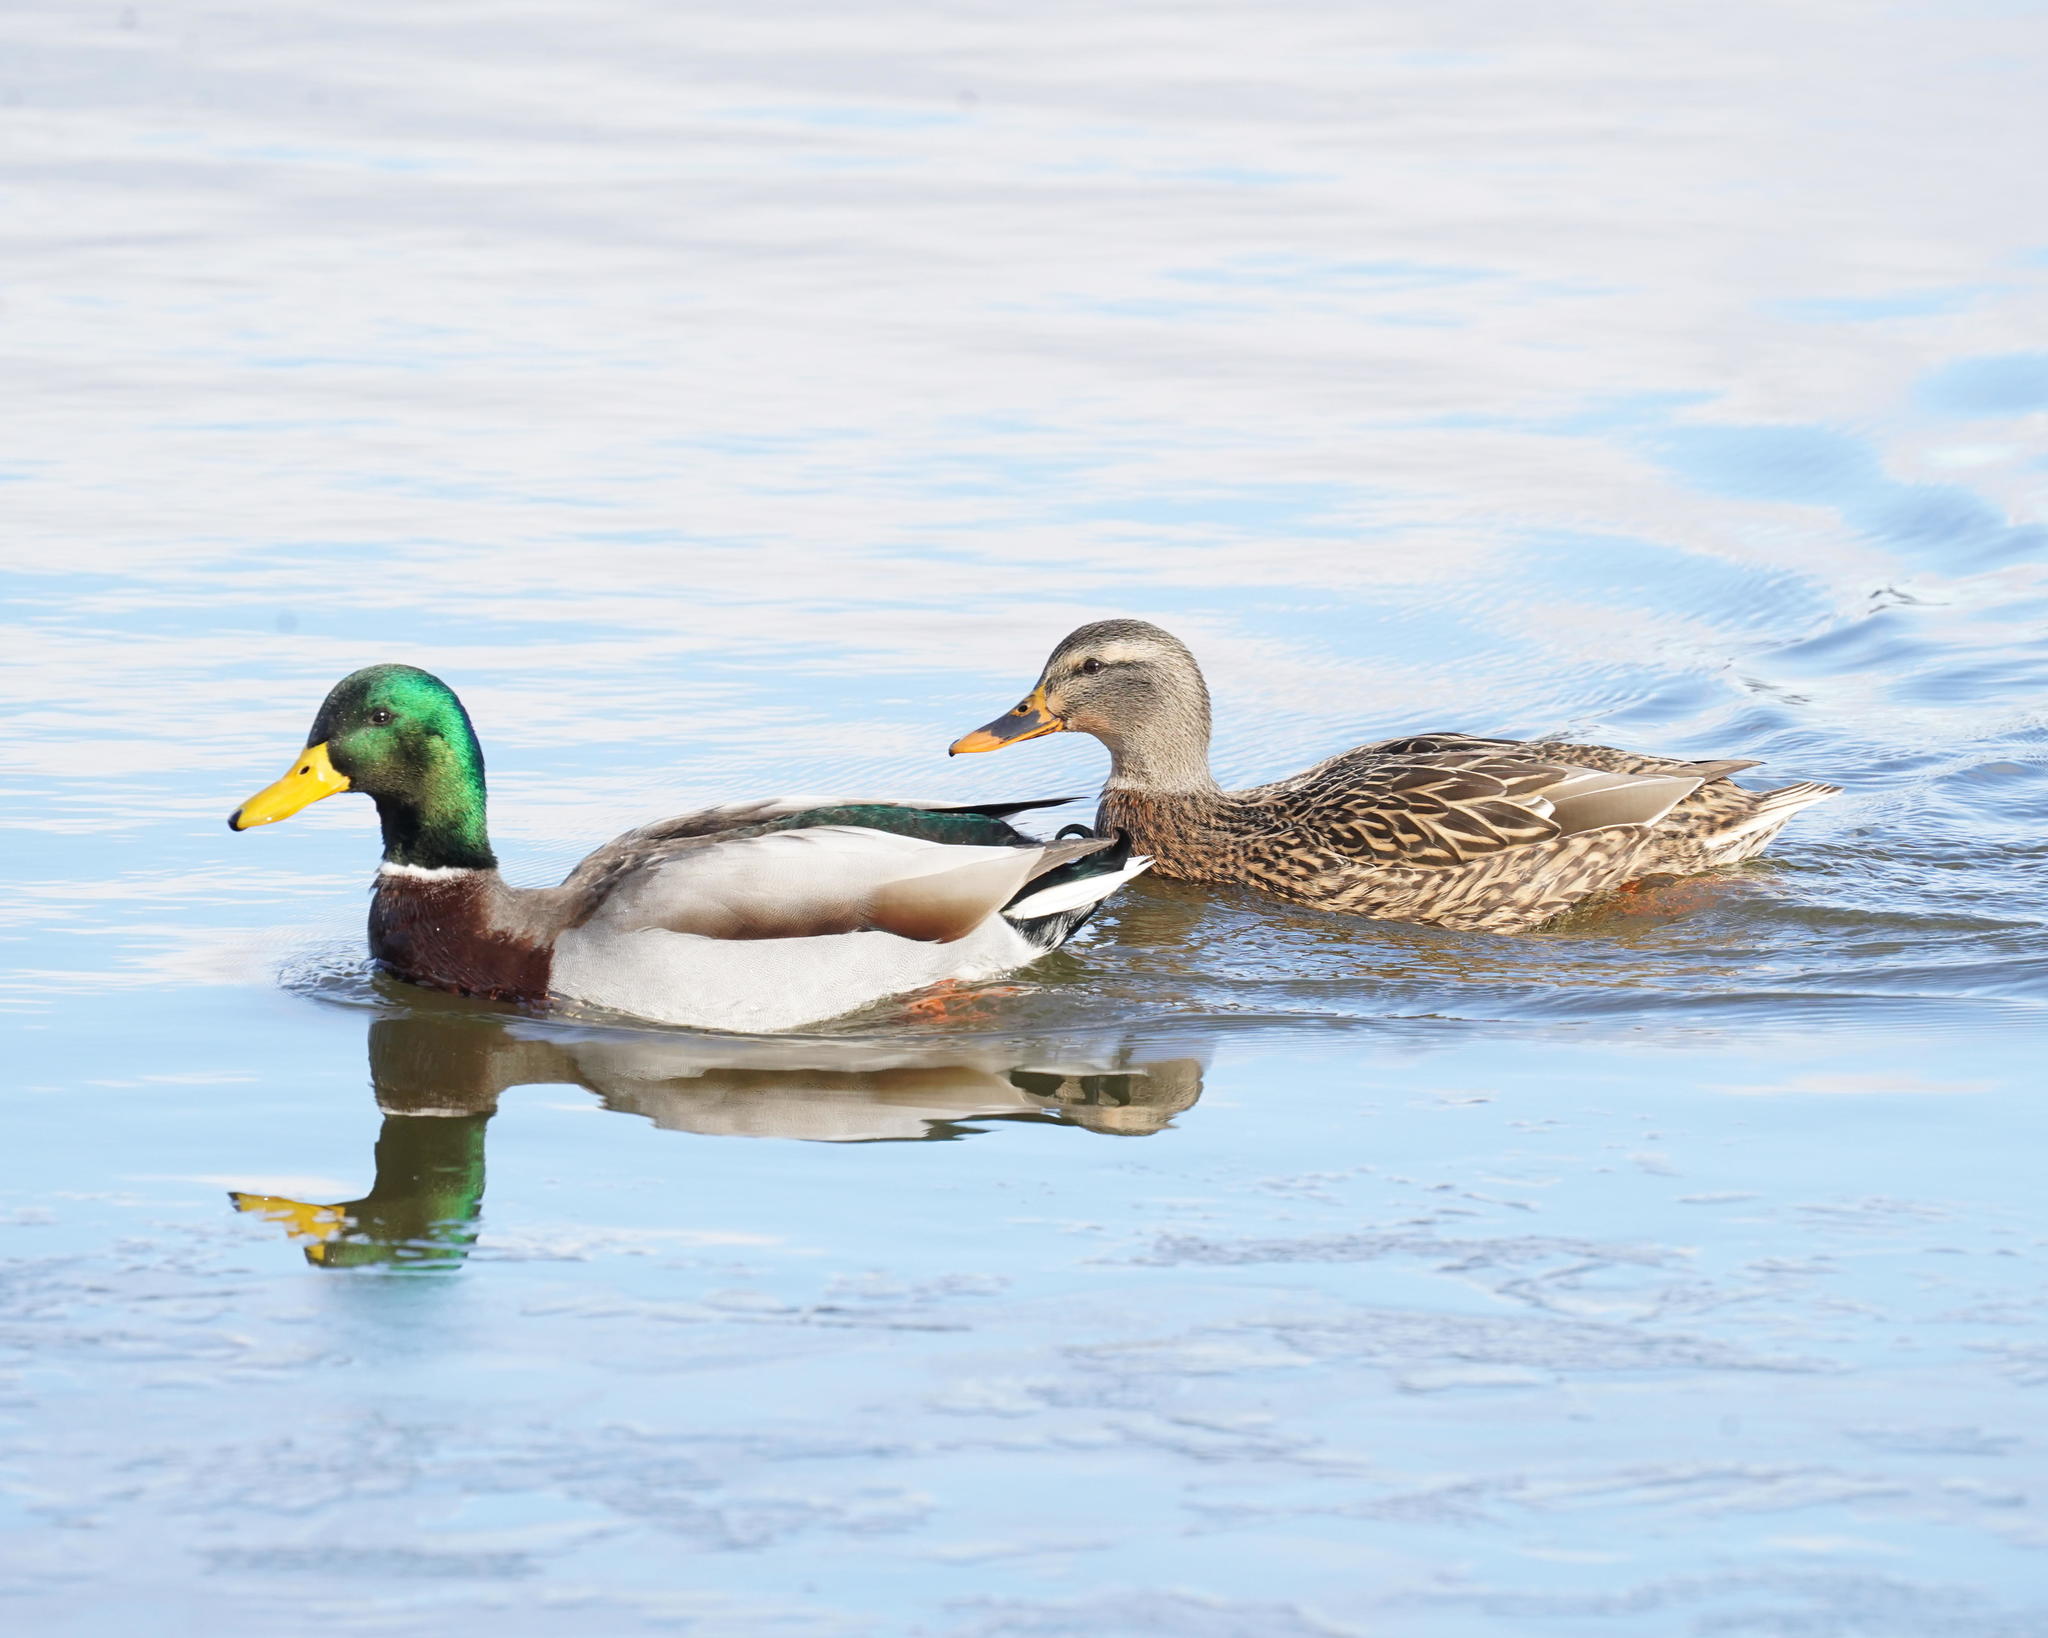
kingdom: Animalia
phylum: Chordata
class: Aves
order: Anseriformes
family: Anatidae
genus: Anas
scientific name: Anas platyrhynchos
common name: Mallard
